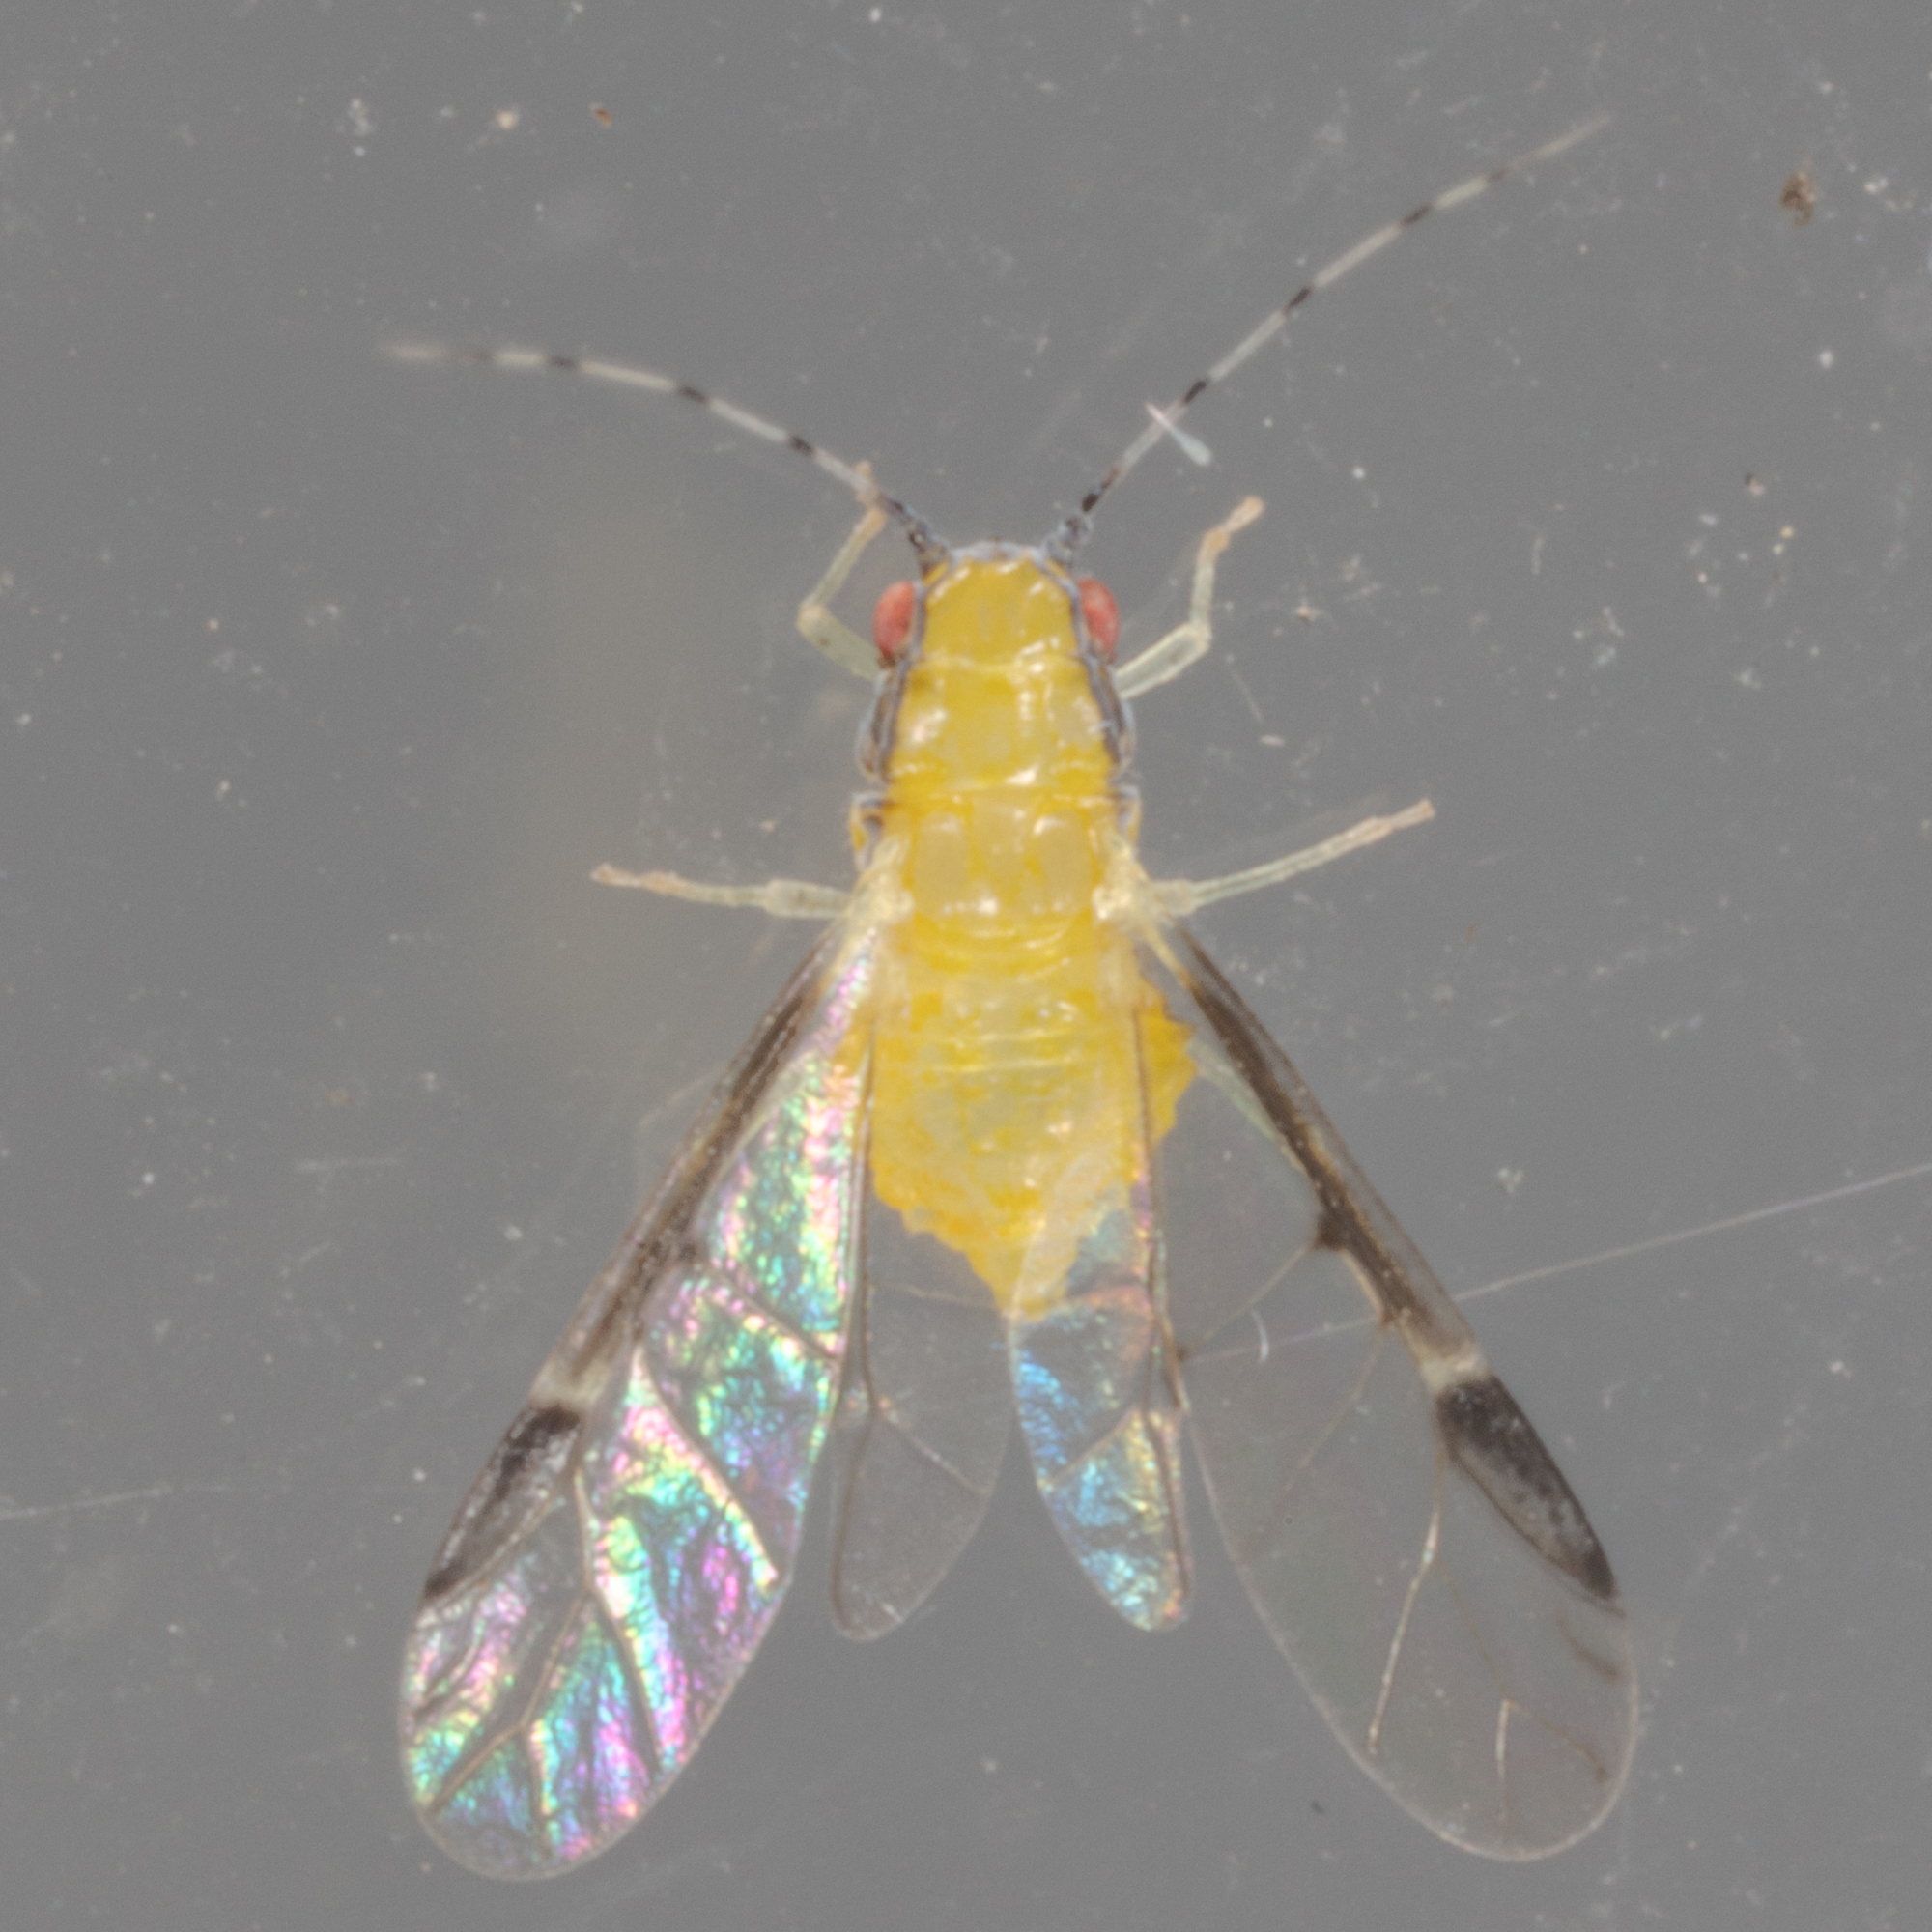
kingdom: Animalia
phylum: Arthropoda
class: Insecta
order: Hemiptera
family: Aphididae
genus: Monellia
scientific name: Monellia caryella
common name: Blackmargined aphid
